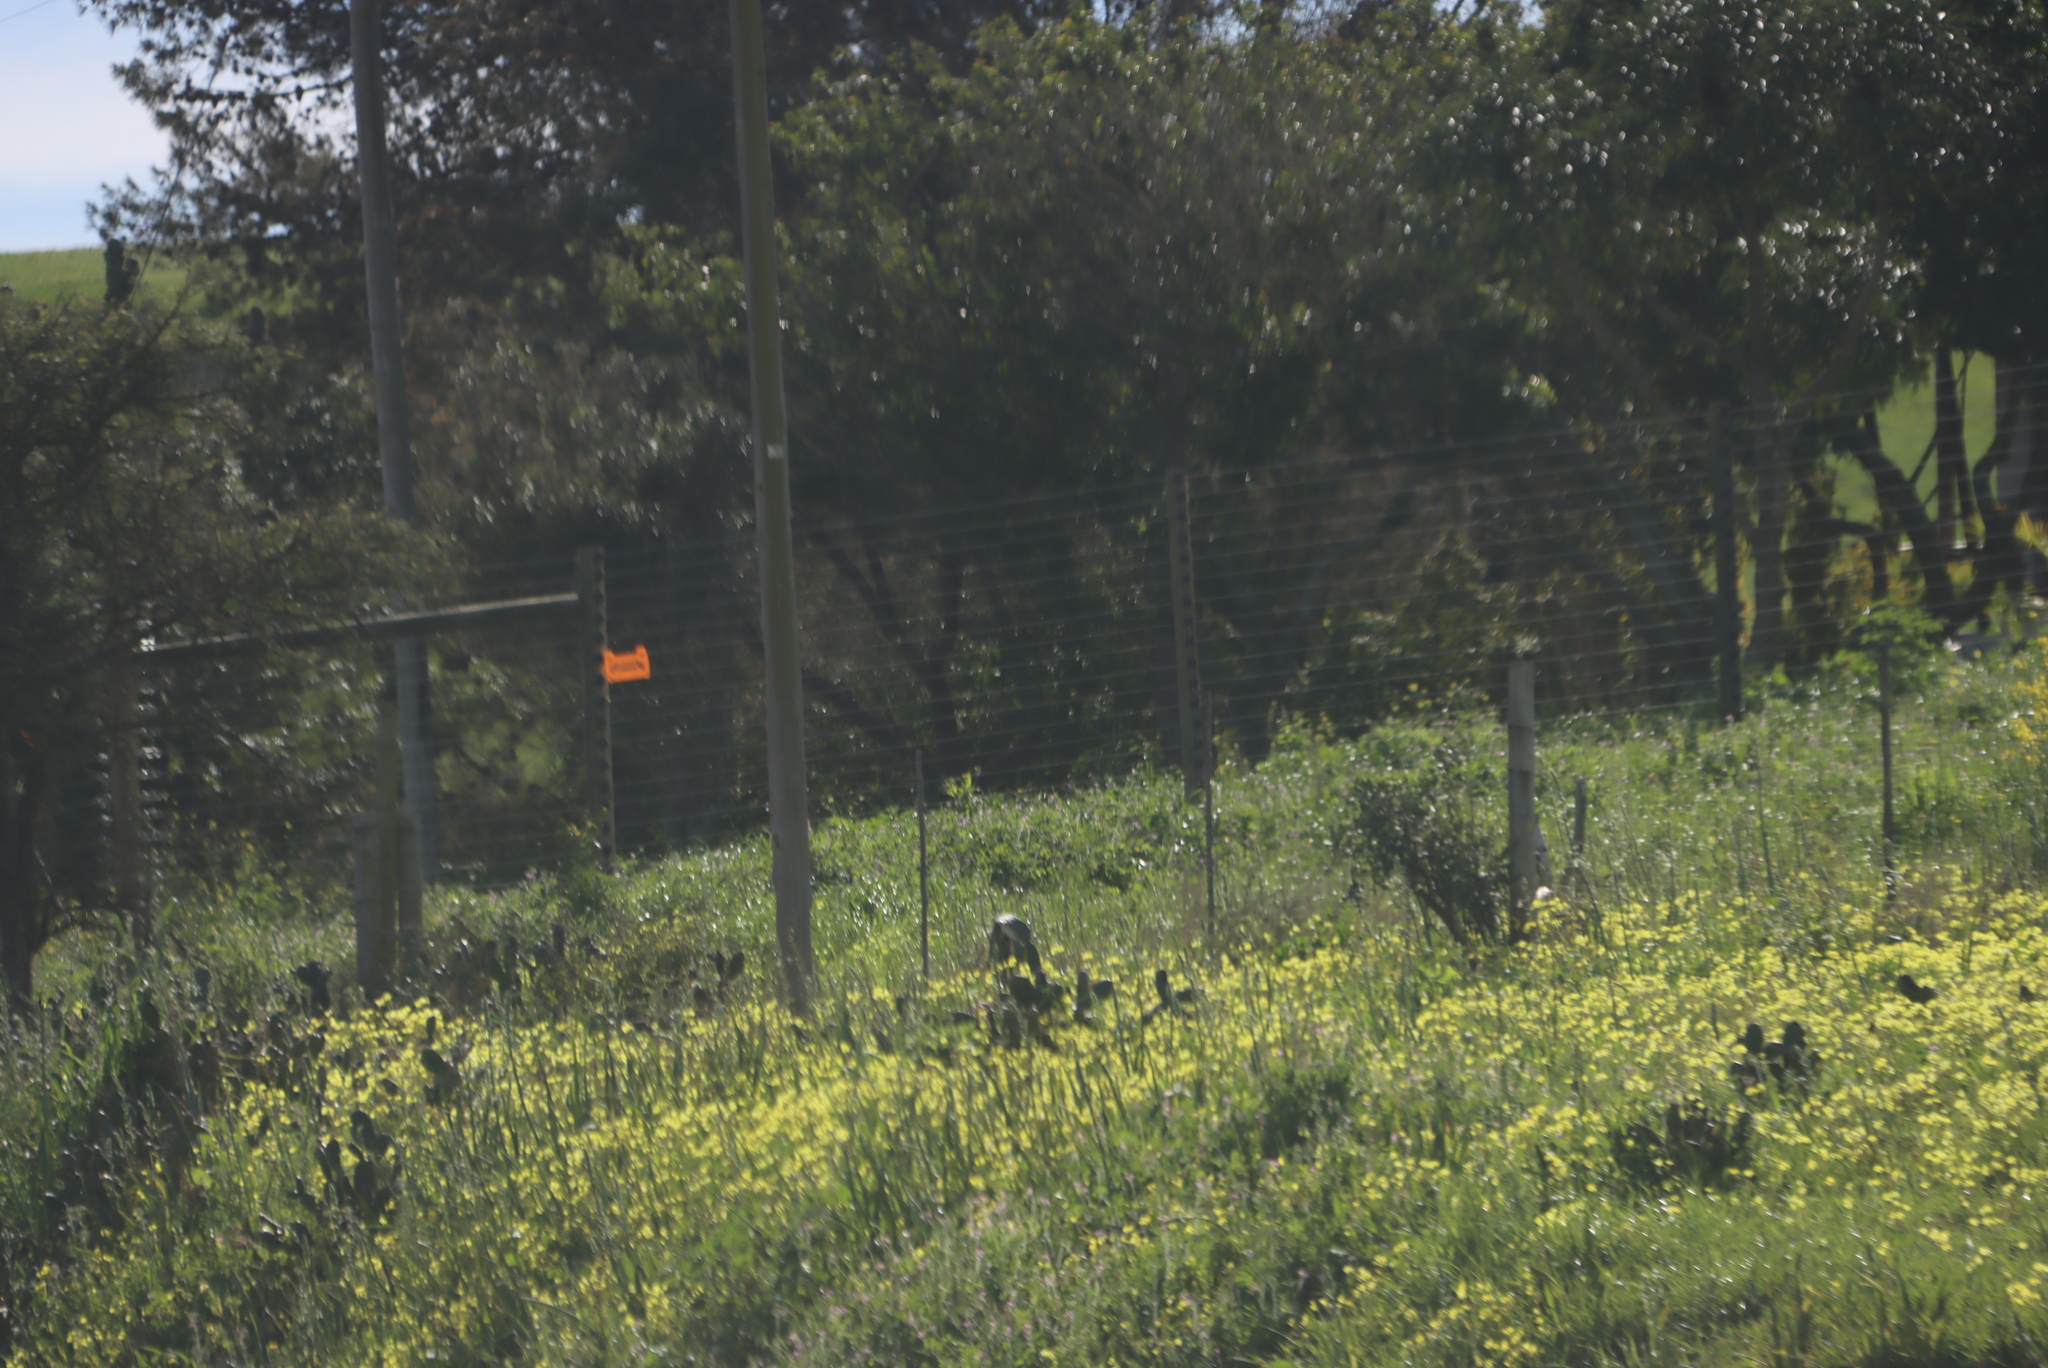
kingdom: Plantae
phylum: Tracheophyta
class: Magnoliopsida
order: Oxalidales
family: Oxalidaceae
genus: Oxalis
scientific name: Oxalis pes-caprae
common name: Bermuda-buttercup
